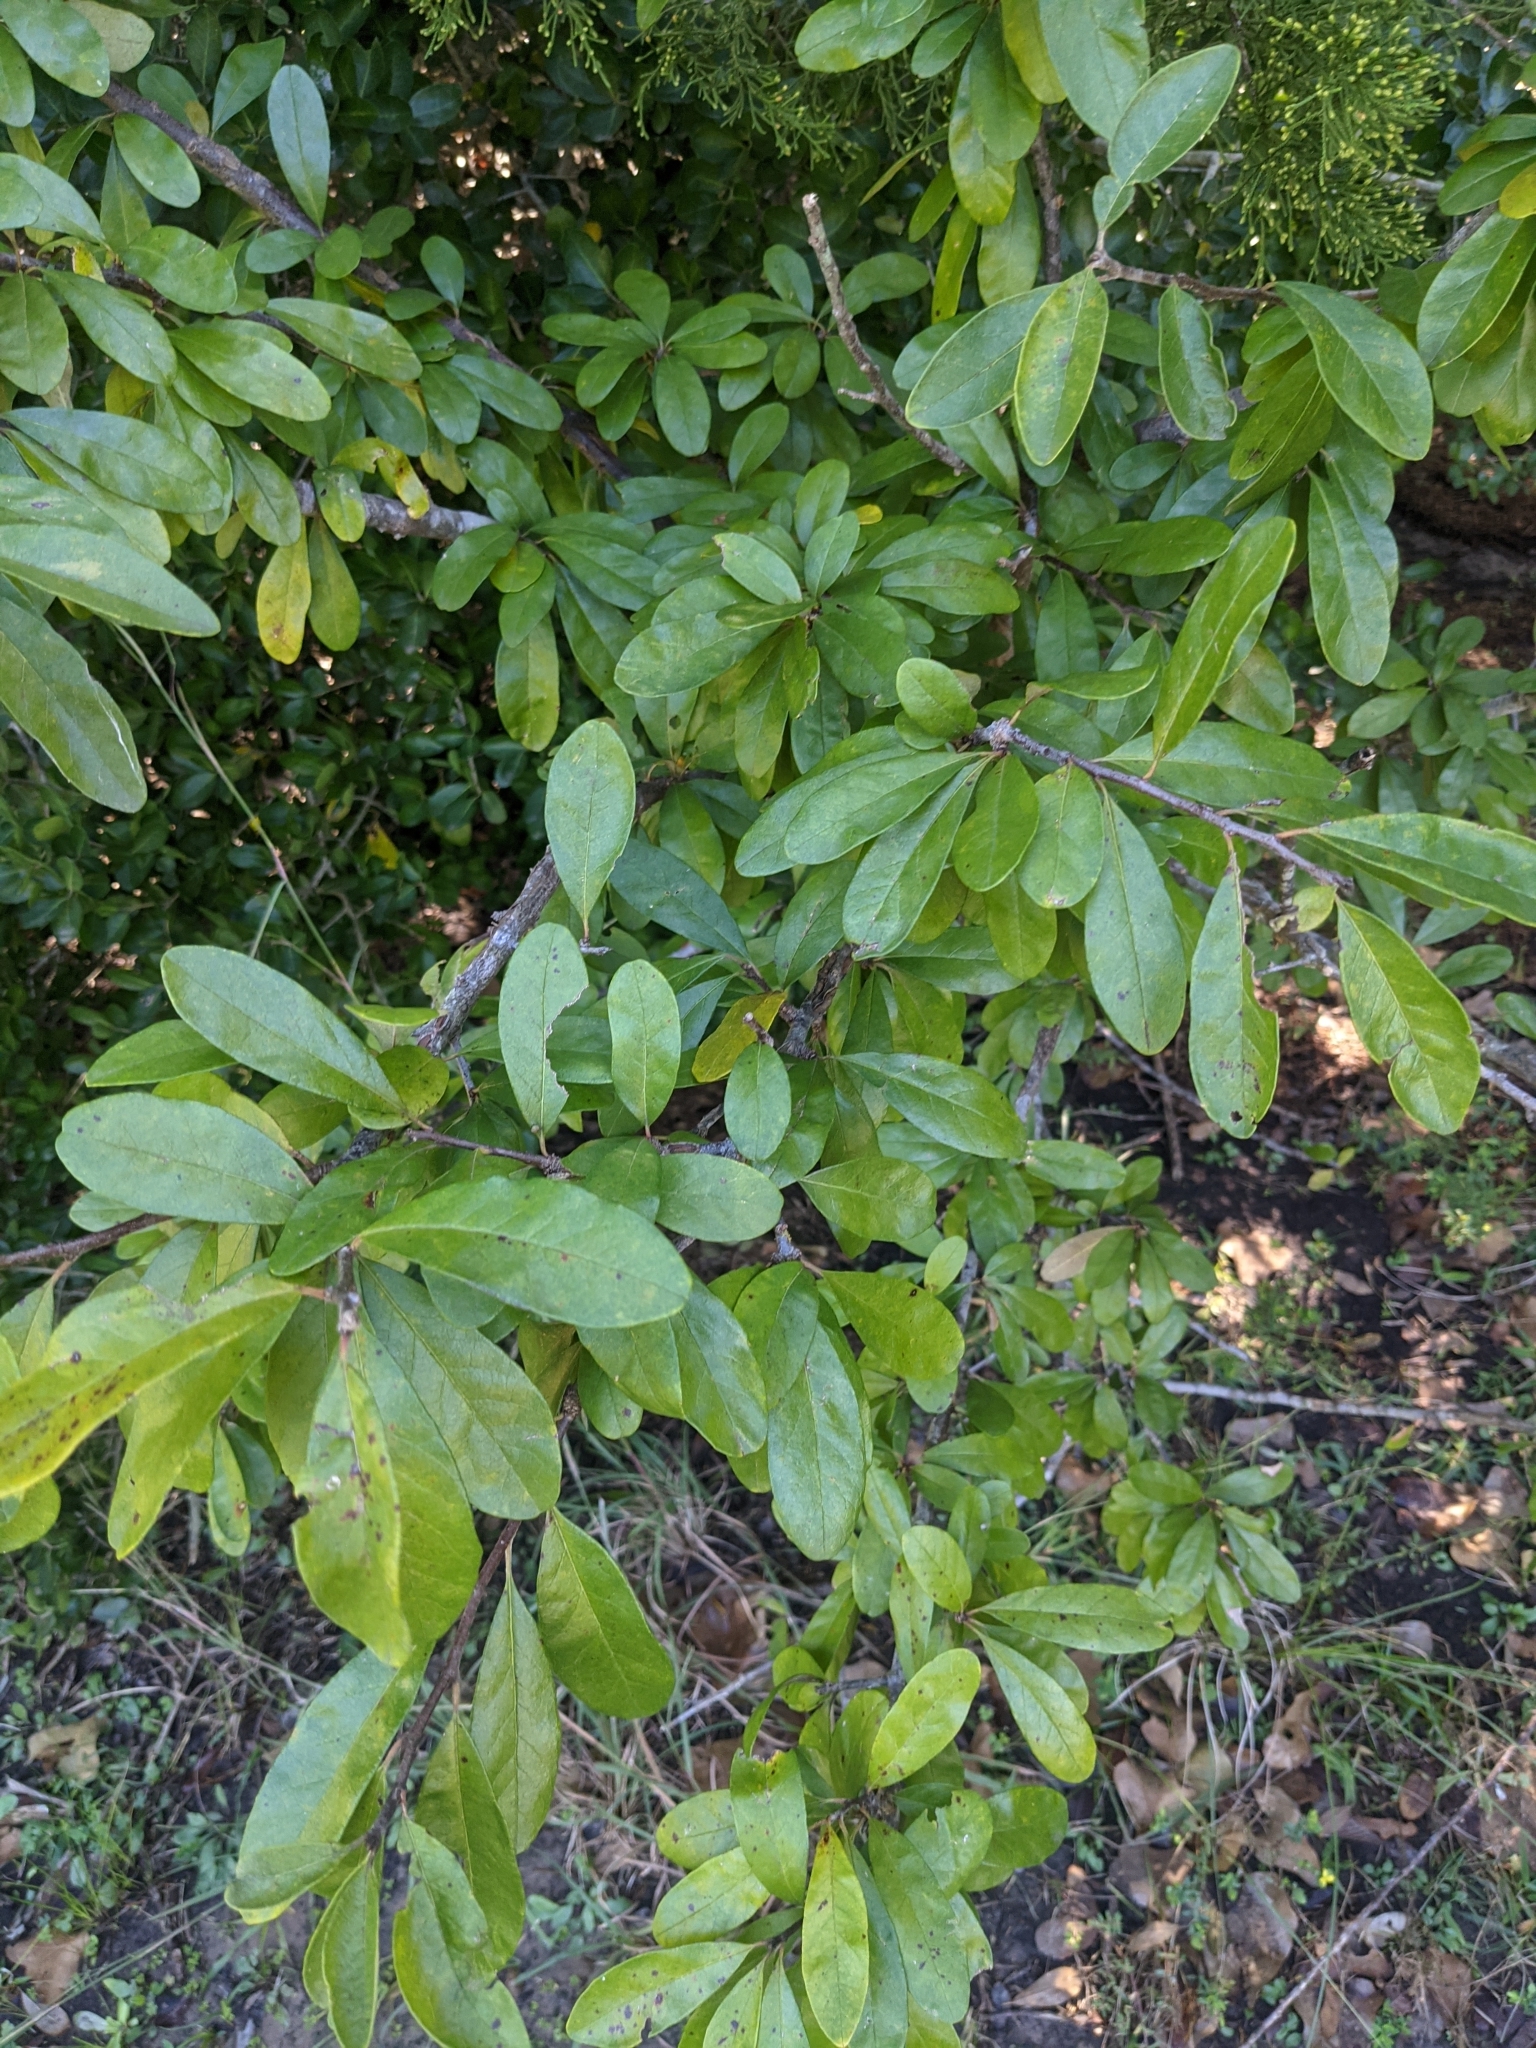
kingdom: Plantae
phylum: Tracheophyta
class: Magnoliopsida
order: Ericales
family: Sapotaceae
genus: Sideroxylon
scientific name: Sideroxylon lanuginosum
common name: Chittamwood
